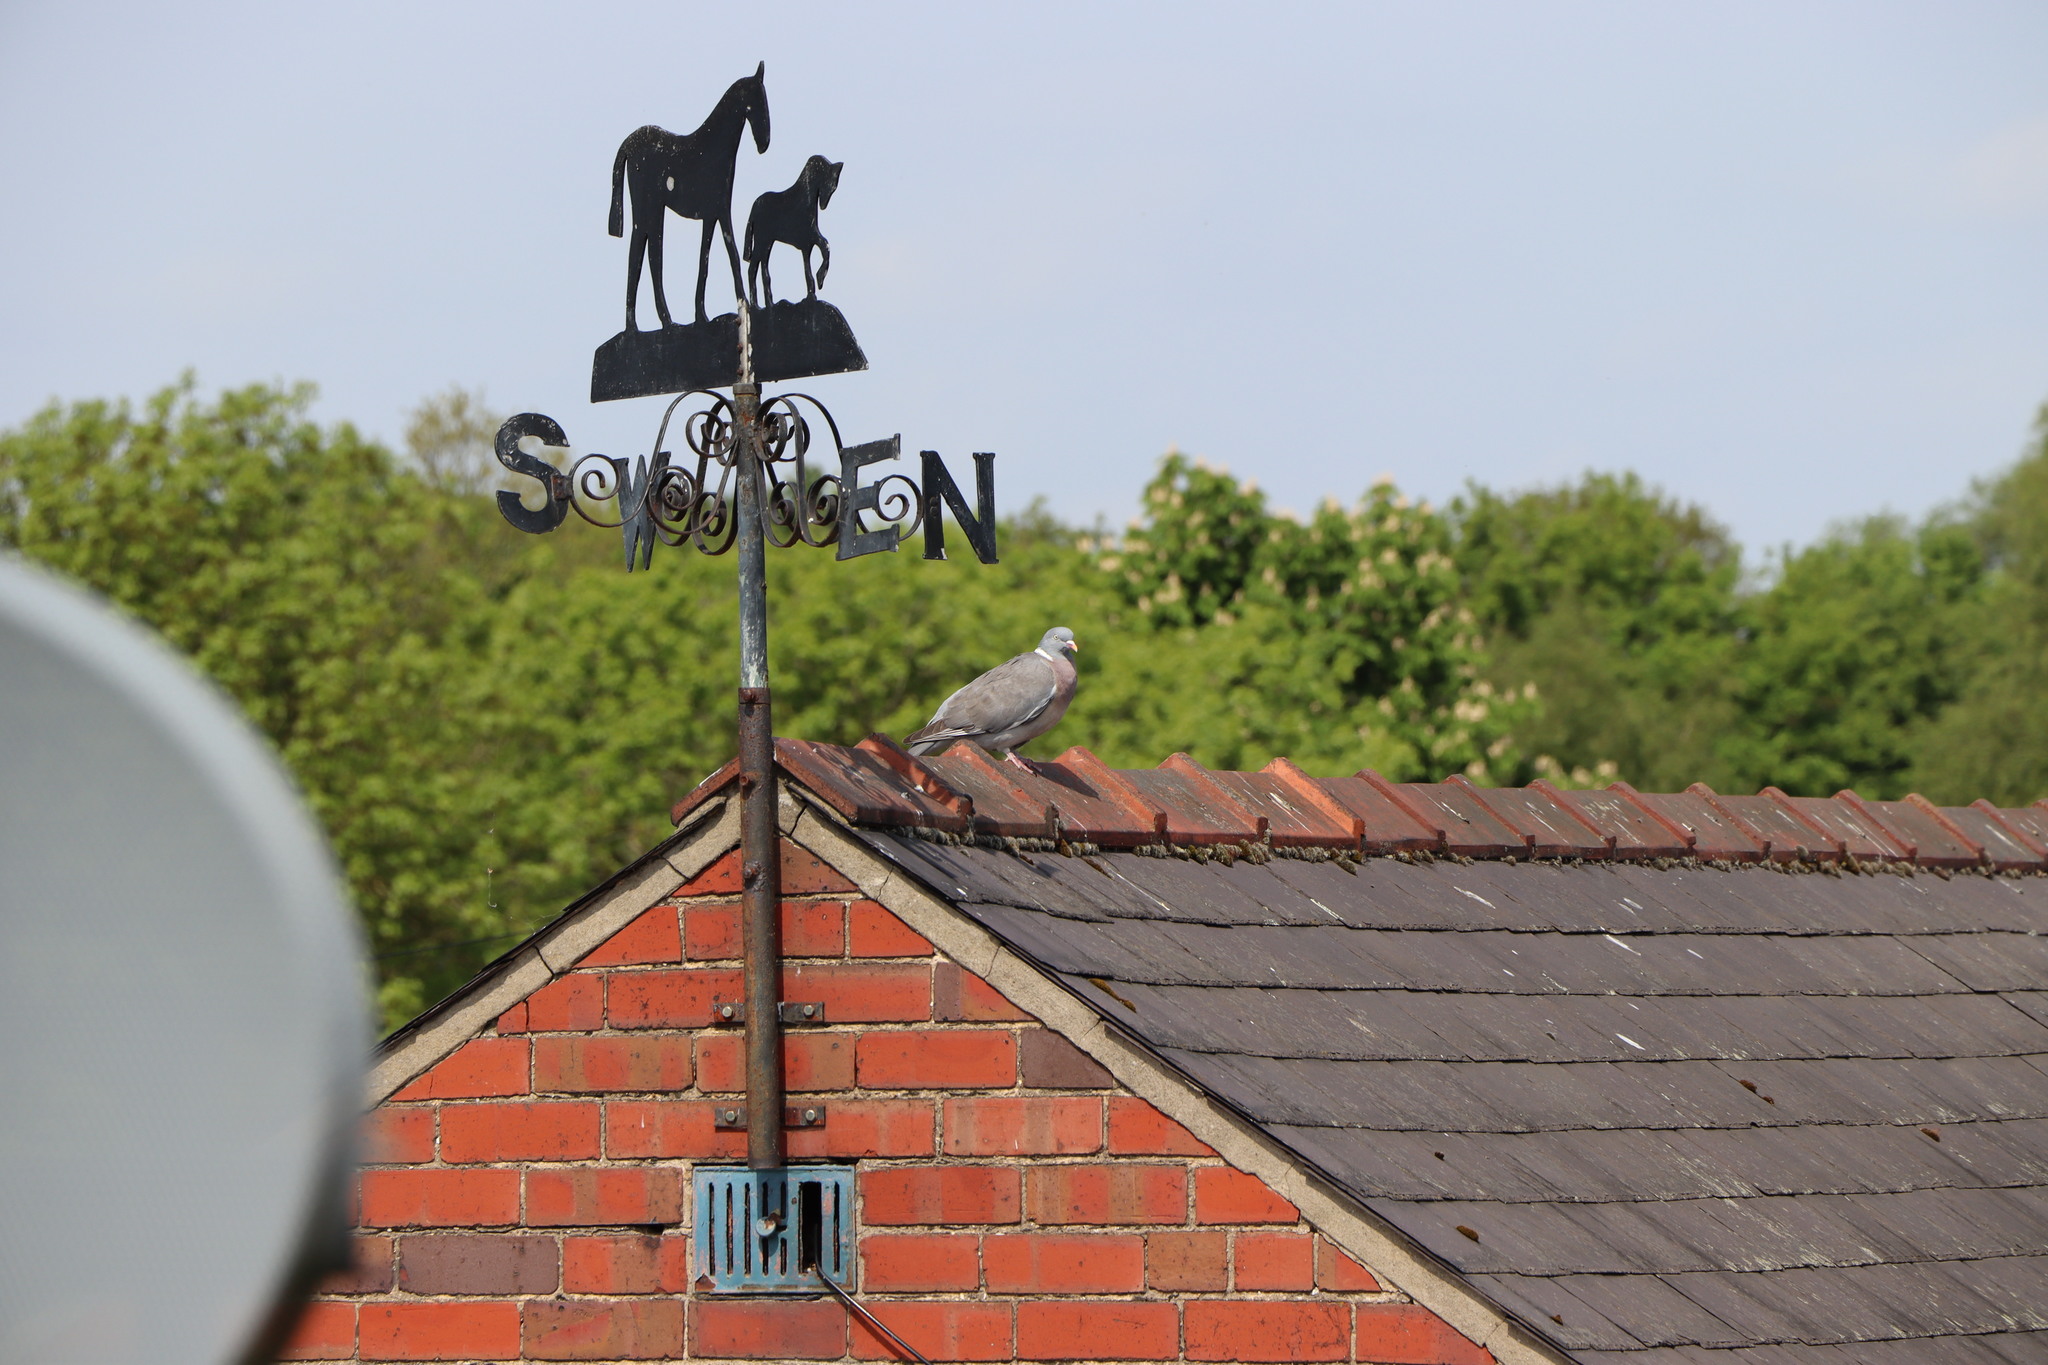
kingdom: Animalia
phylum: Chordata
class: Aves
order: Columbiformes
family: Columbidae
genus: Columba
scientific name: Columba palumbus
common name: Common wood pigeon
